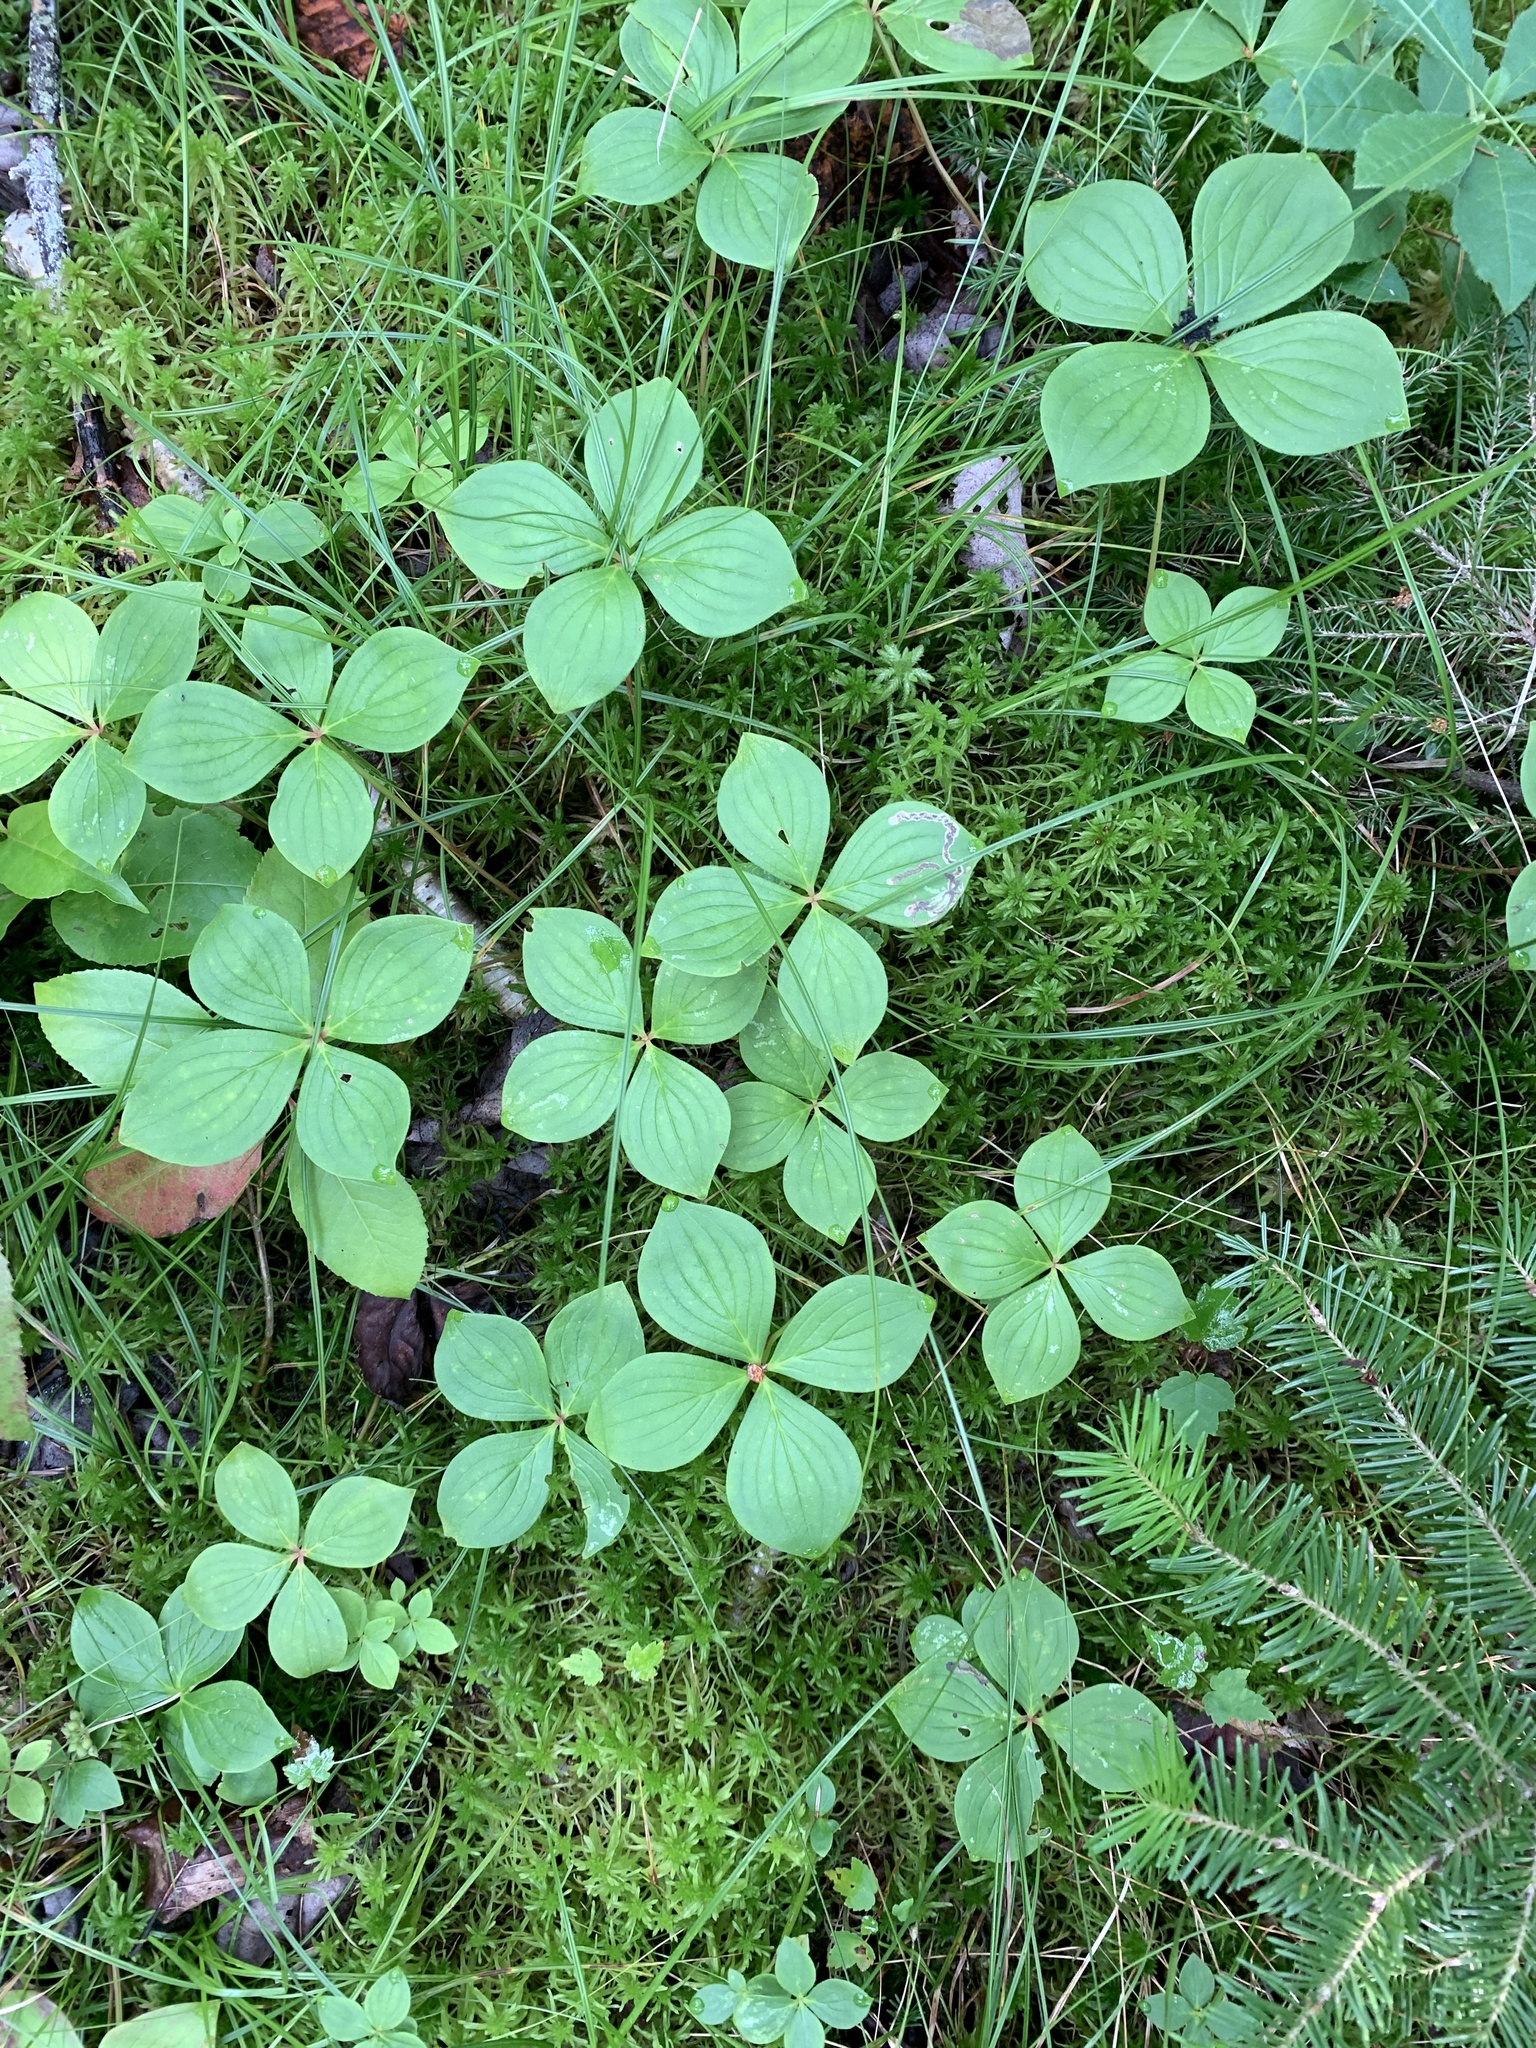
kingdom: Plantae
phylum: Tracheophyta
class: Magnoliopsida
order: Cornales
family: Cornaceae
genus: Cornus
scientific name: Cornus canadensis
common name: Creeping dogwood
